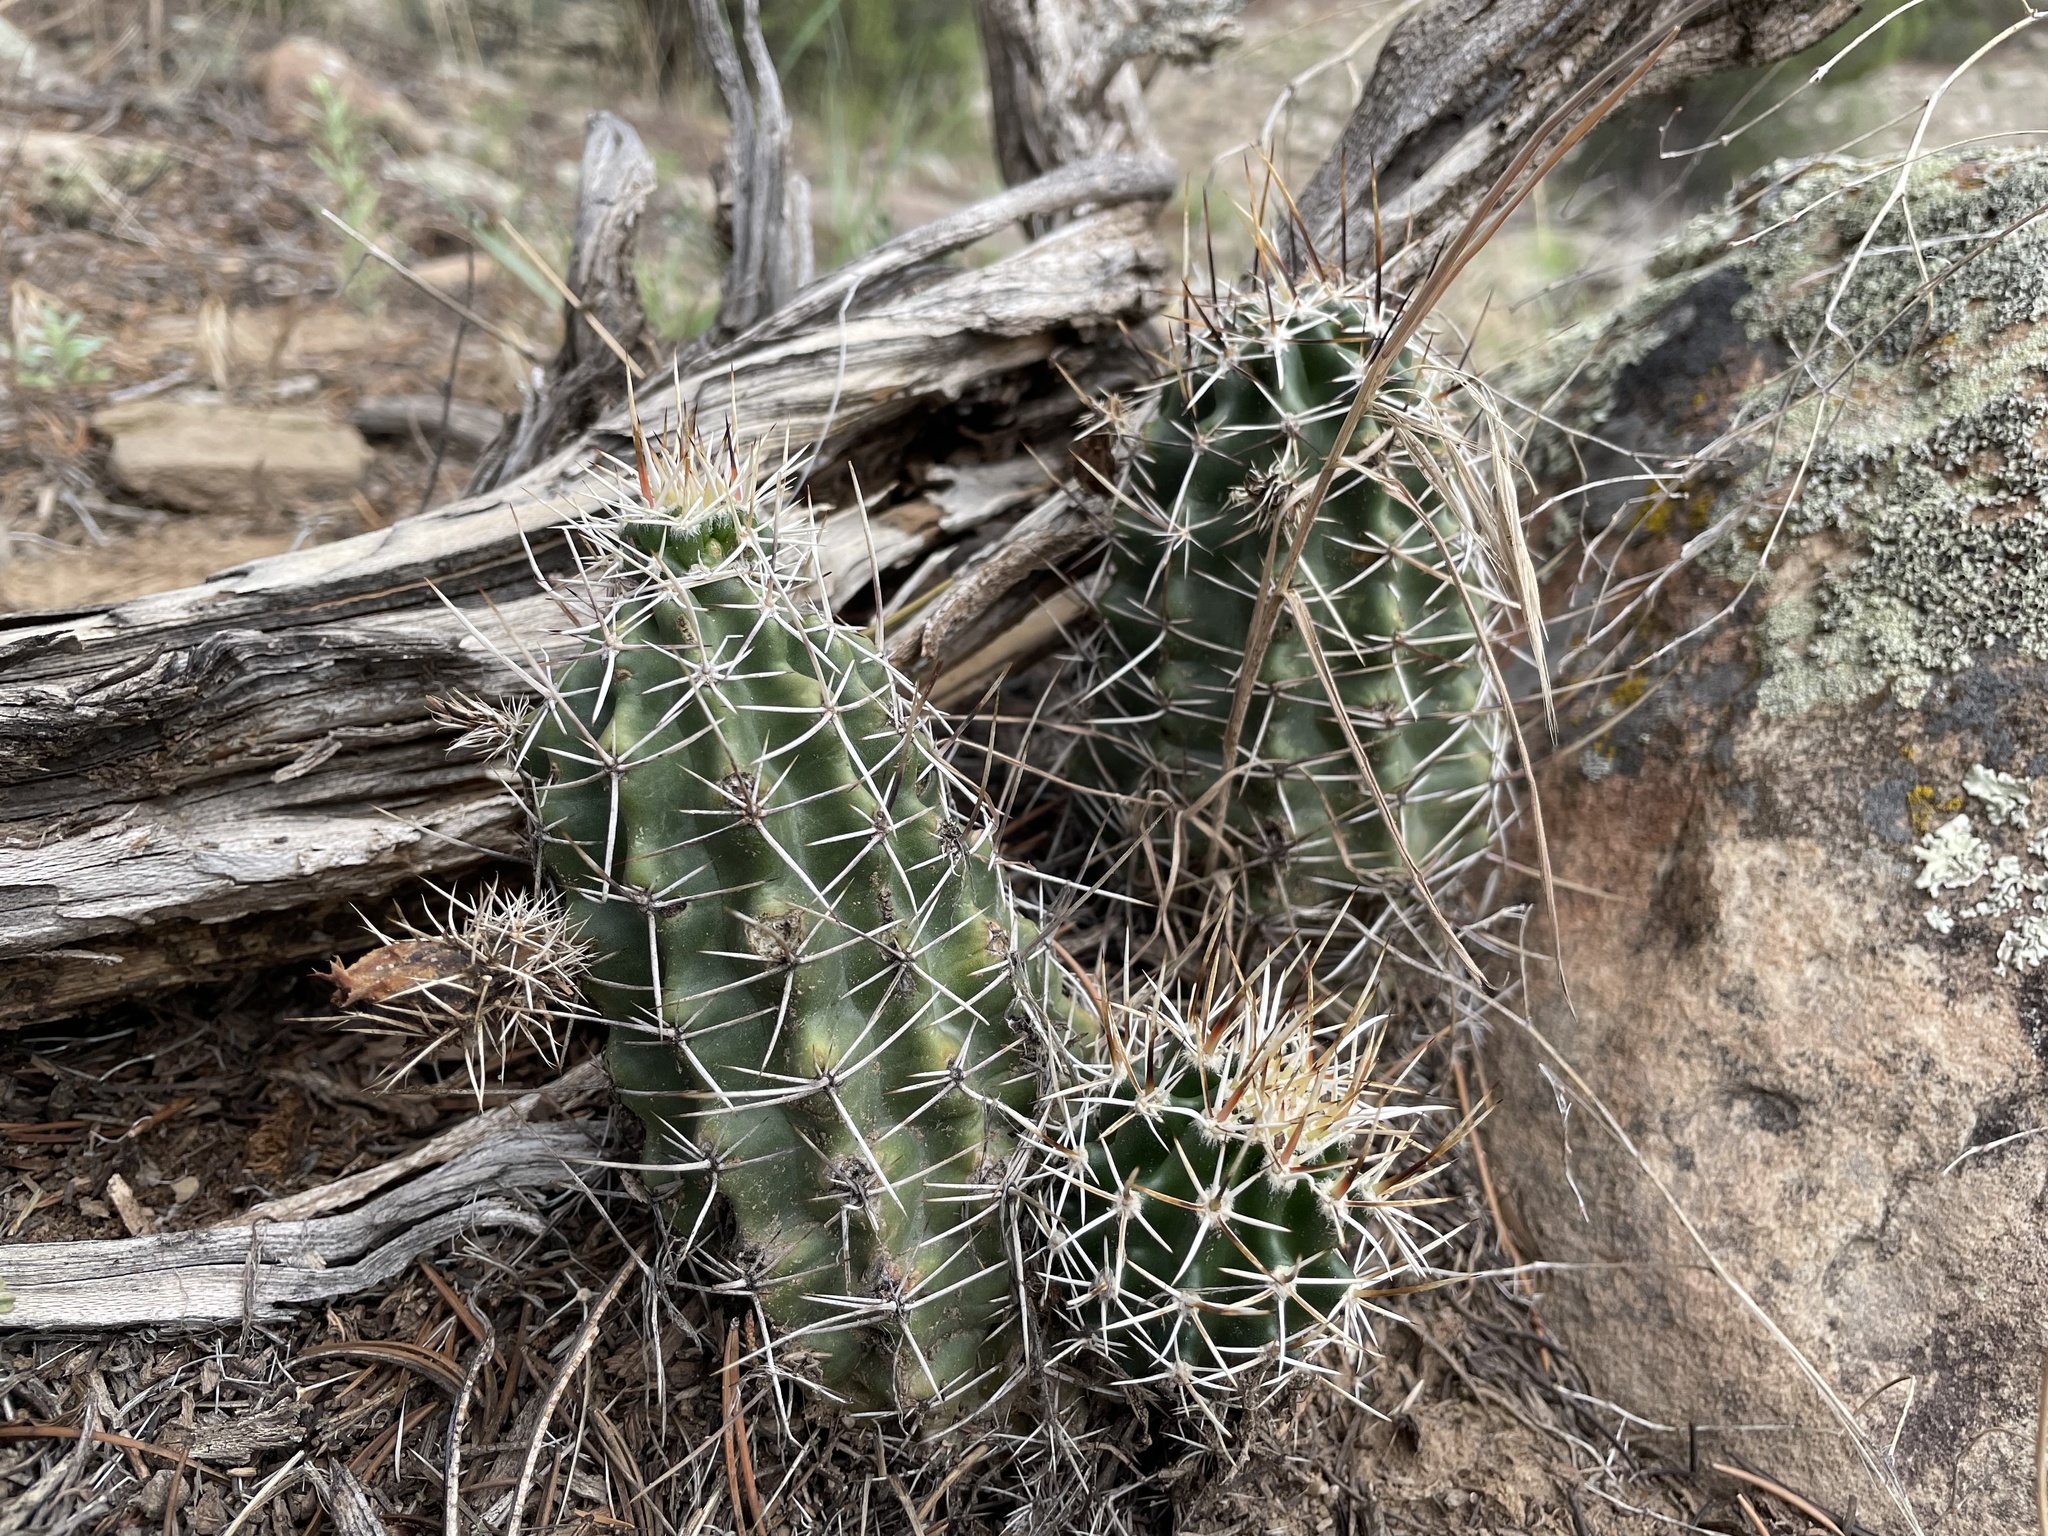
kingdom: Plantae
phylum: Tracheophyta
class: Magnoliopsida
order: Caryophyllales
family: Cactaceae
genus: Echinocereus
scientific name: Echinocereus fendleri
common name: Fendler's hedgehog cactus
